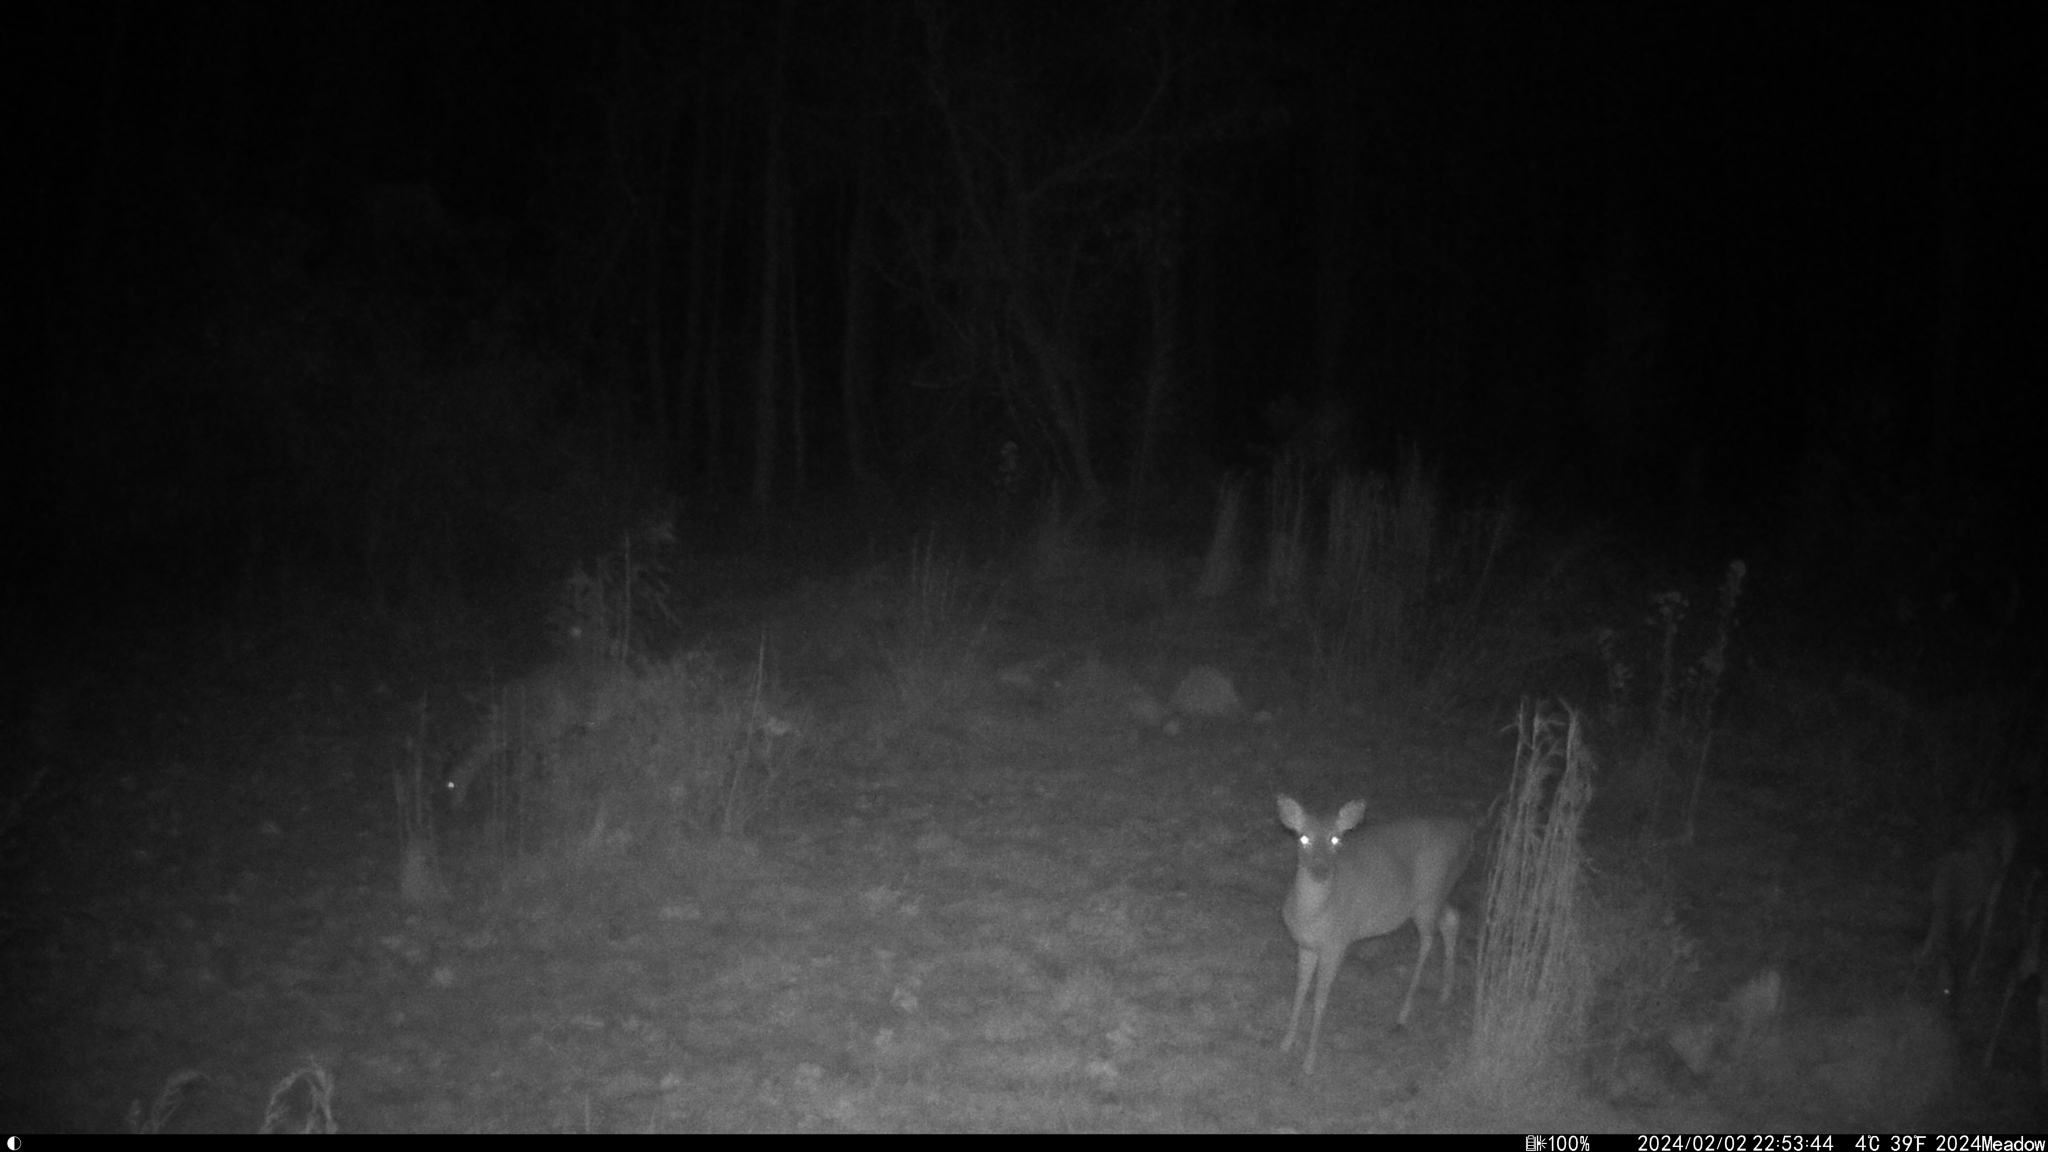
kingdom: Animalia
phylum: Chordata
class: Mammalia
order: Artiodactyla
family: Cervidae
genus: Odocoileus
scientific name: Odocoileus virginianus
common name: White-tailed deer
